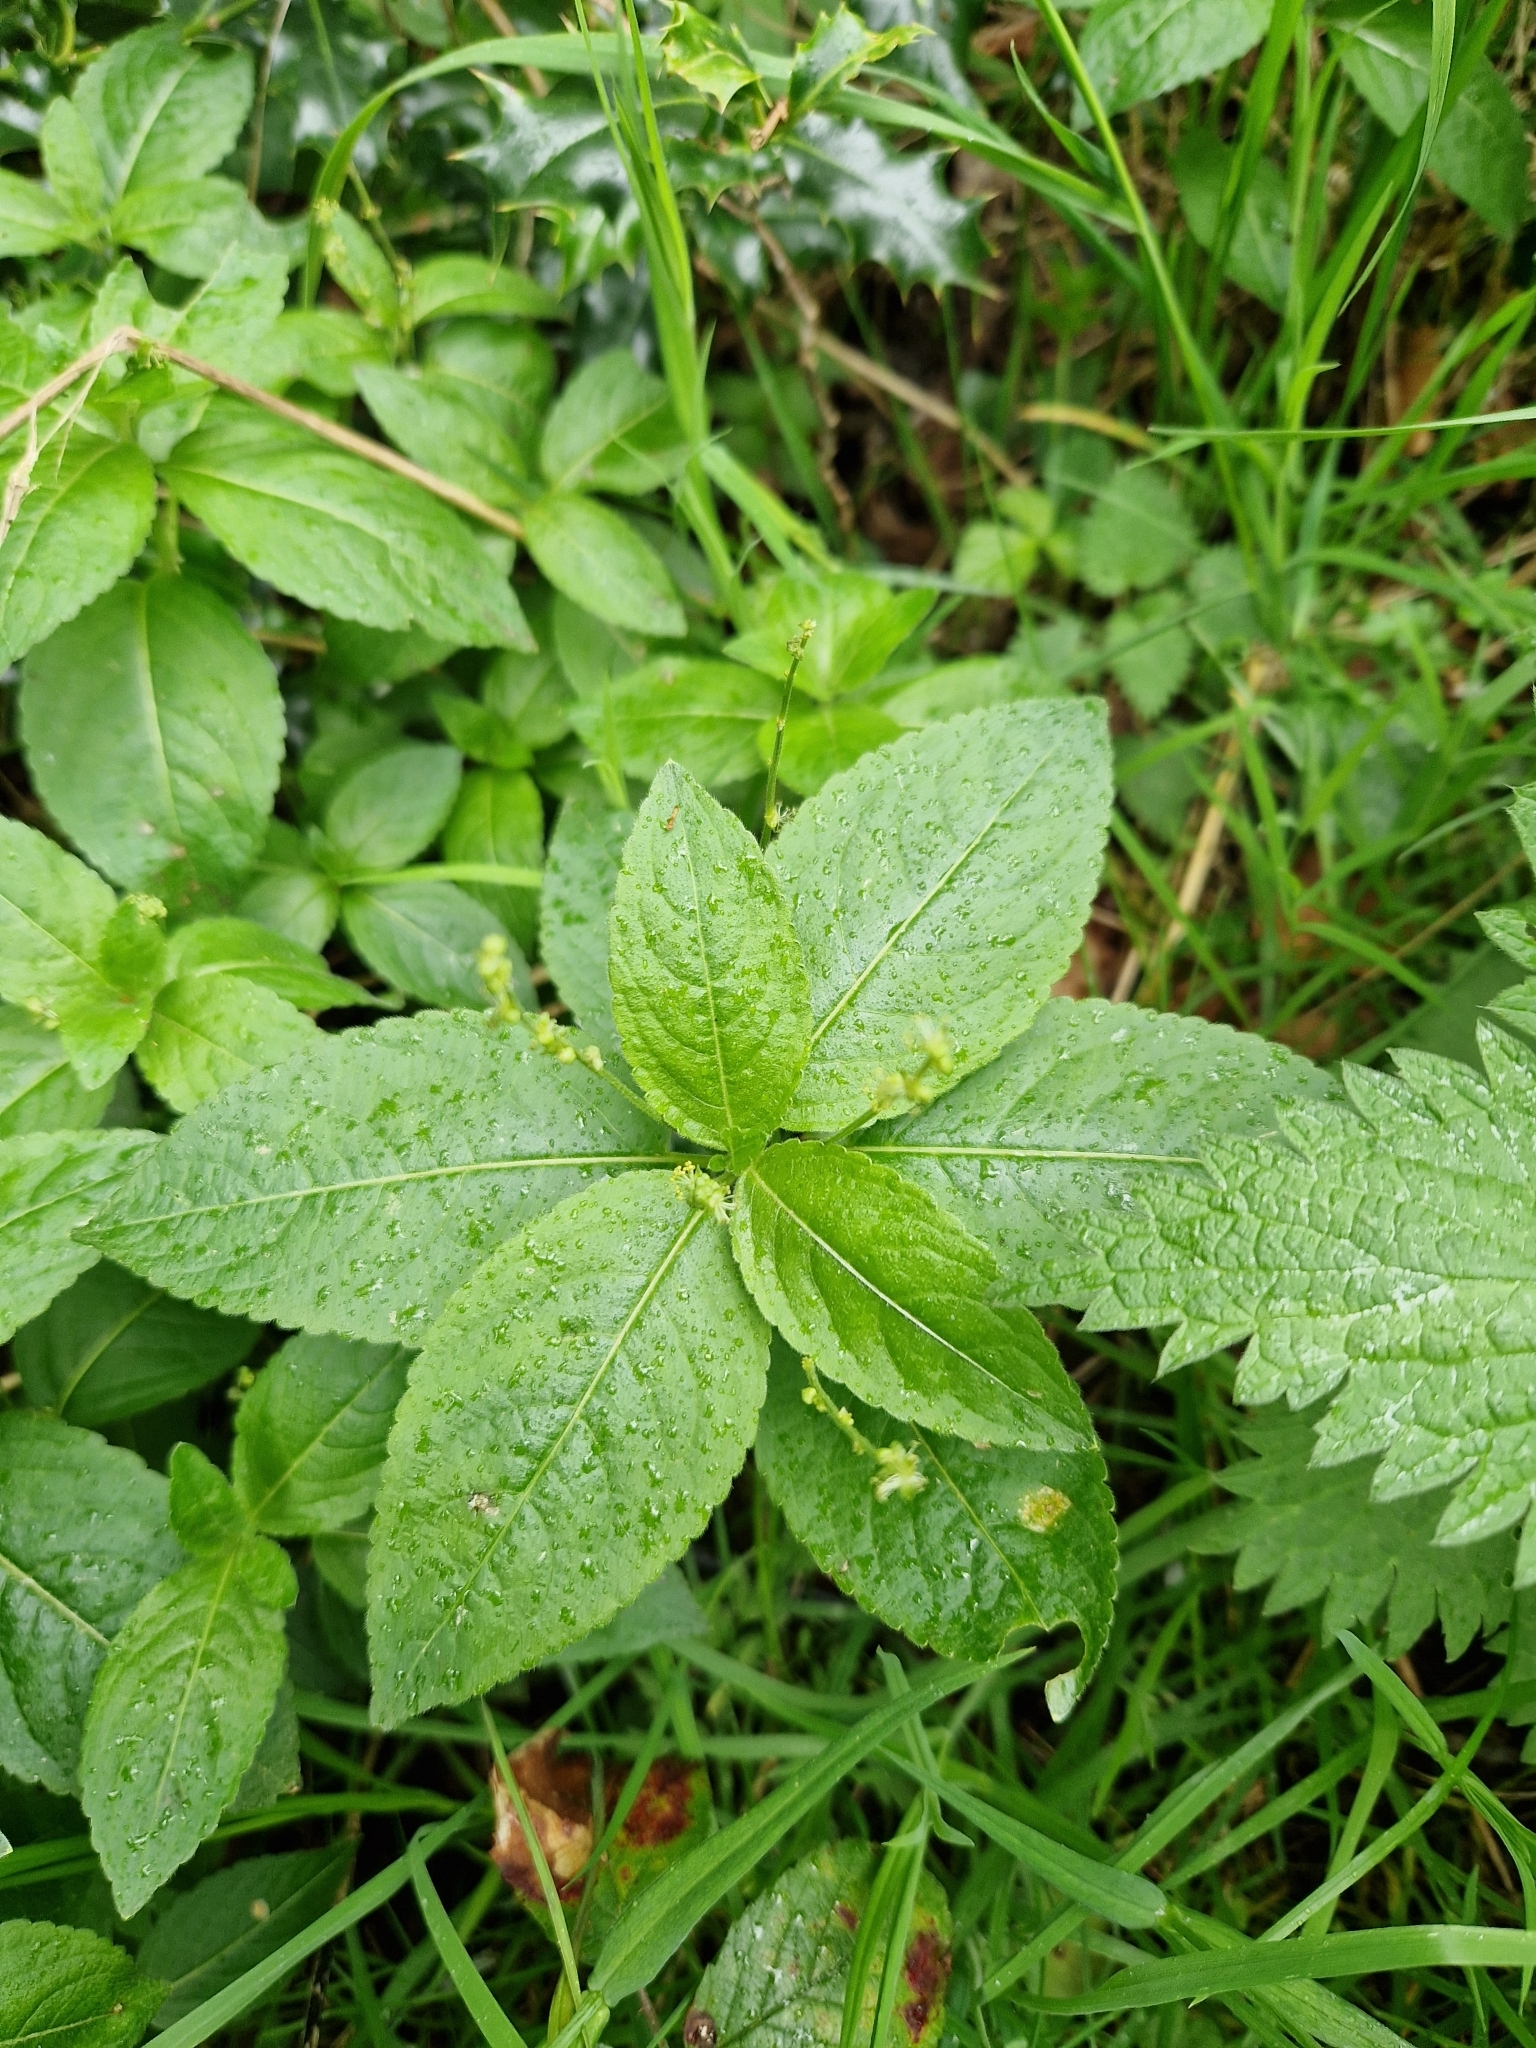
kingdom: Plantae
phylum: Tracheophyta
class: Magnoliopsida
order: Malpighiales
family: Euphorbiaceae
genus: Mercurialis
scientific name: Mercurialis perennis
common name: Dog mercury
